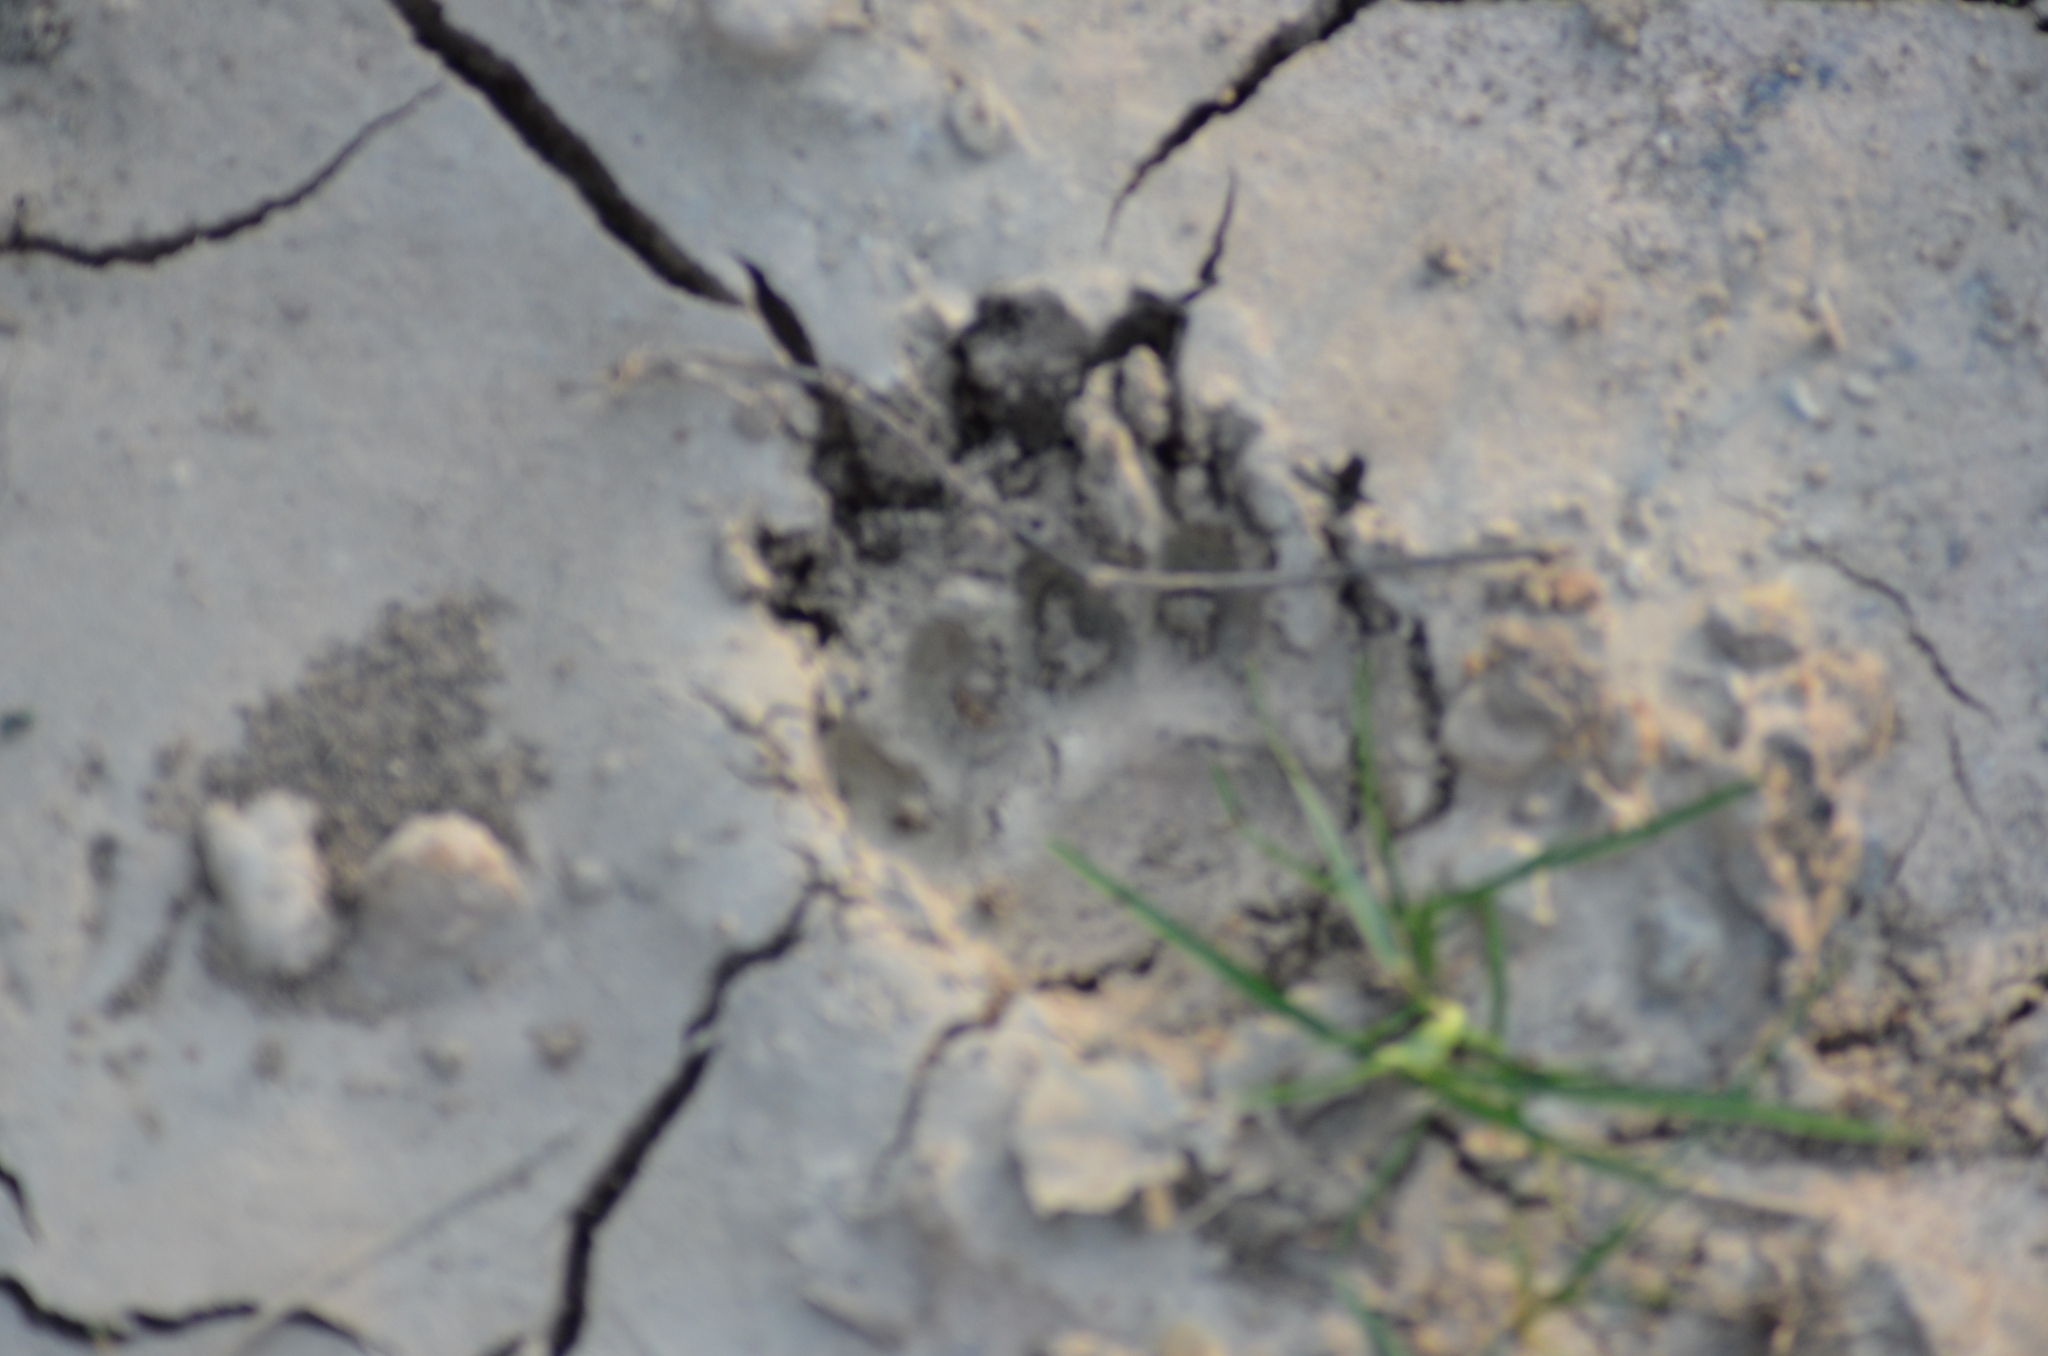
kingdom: Animalia
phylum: Chordata
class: Mammalia
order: Carnivora
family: Mustelidae
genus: Meles
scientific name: Meles meles
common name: Eurasian badger
